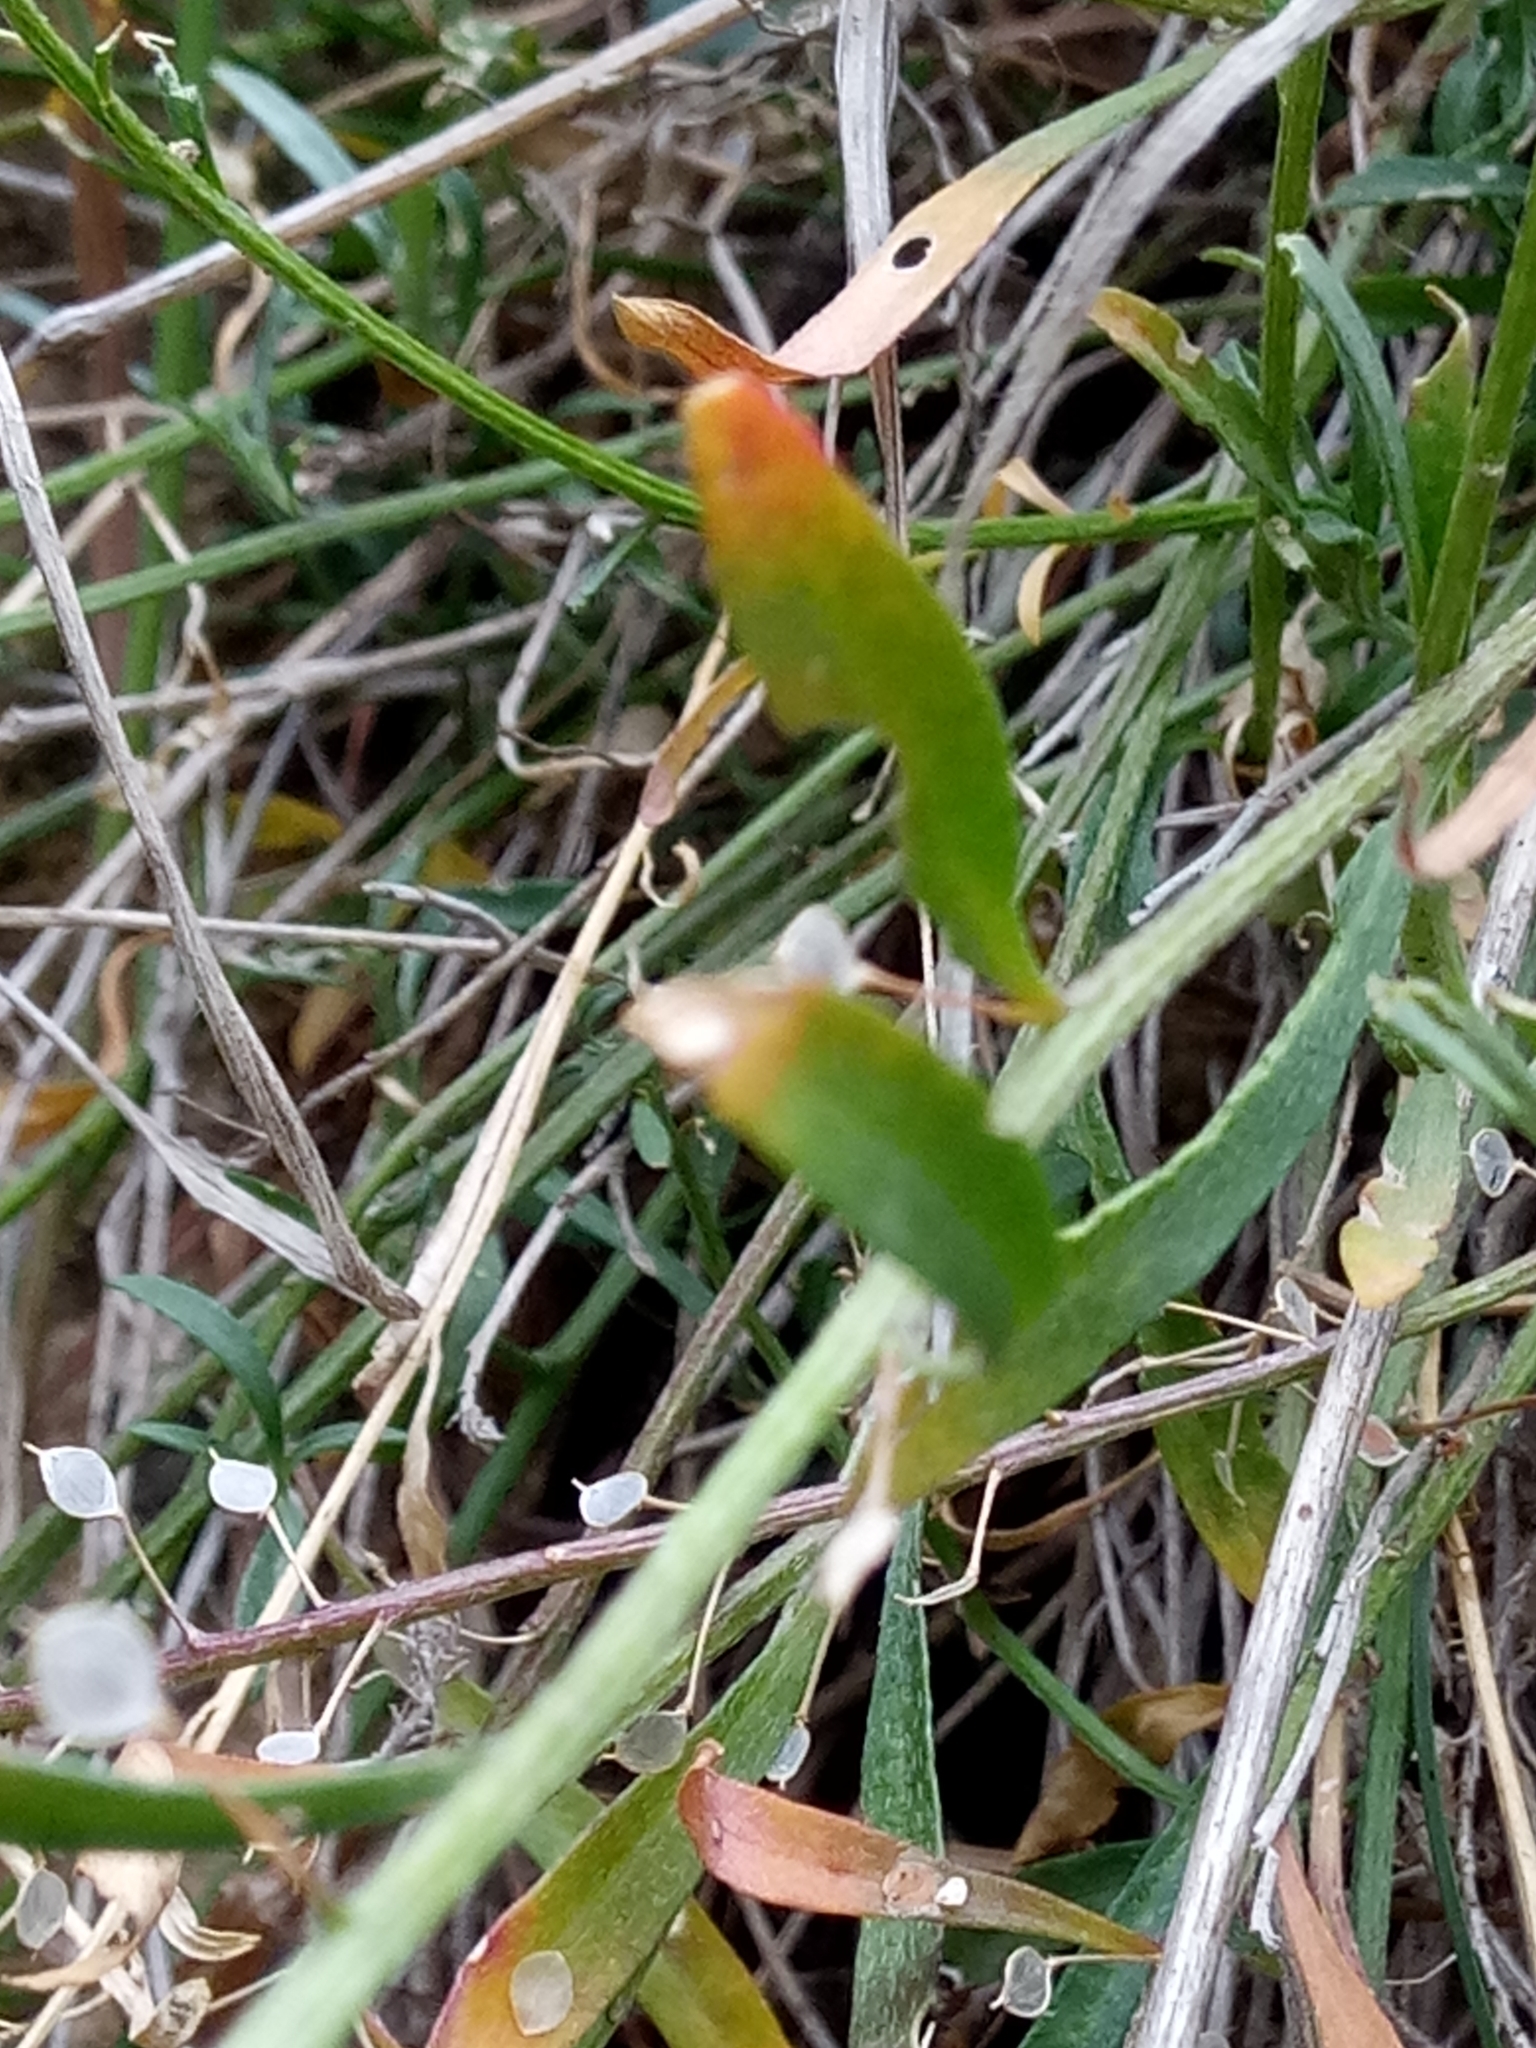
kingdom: Plantae
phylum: Tracheophyta
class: Magnoliopsida
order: Brassicales
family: Brassicaceae
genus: Lobularia
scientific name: Lobularia maritima
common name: Sweet alison
